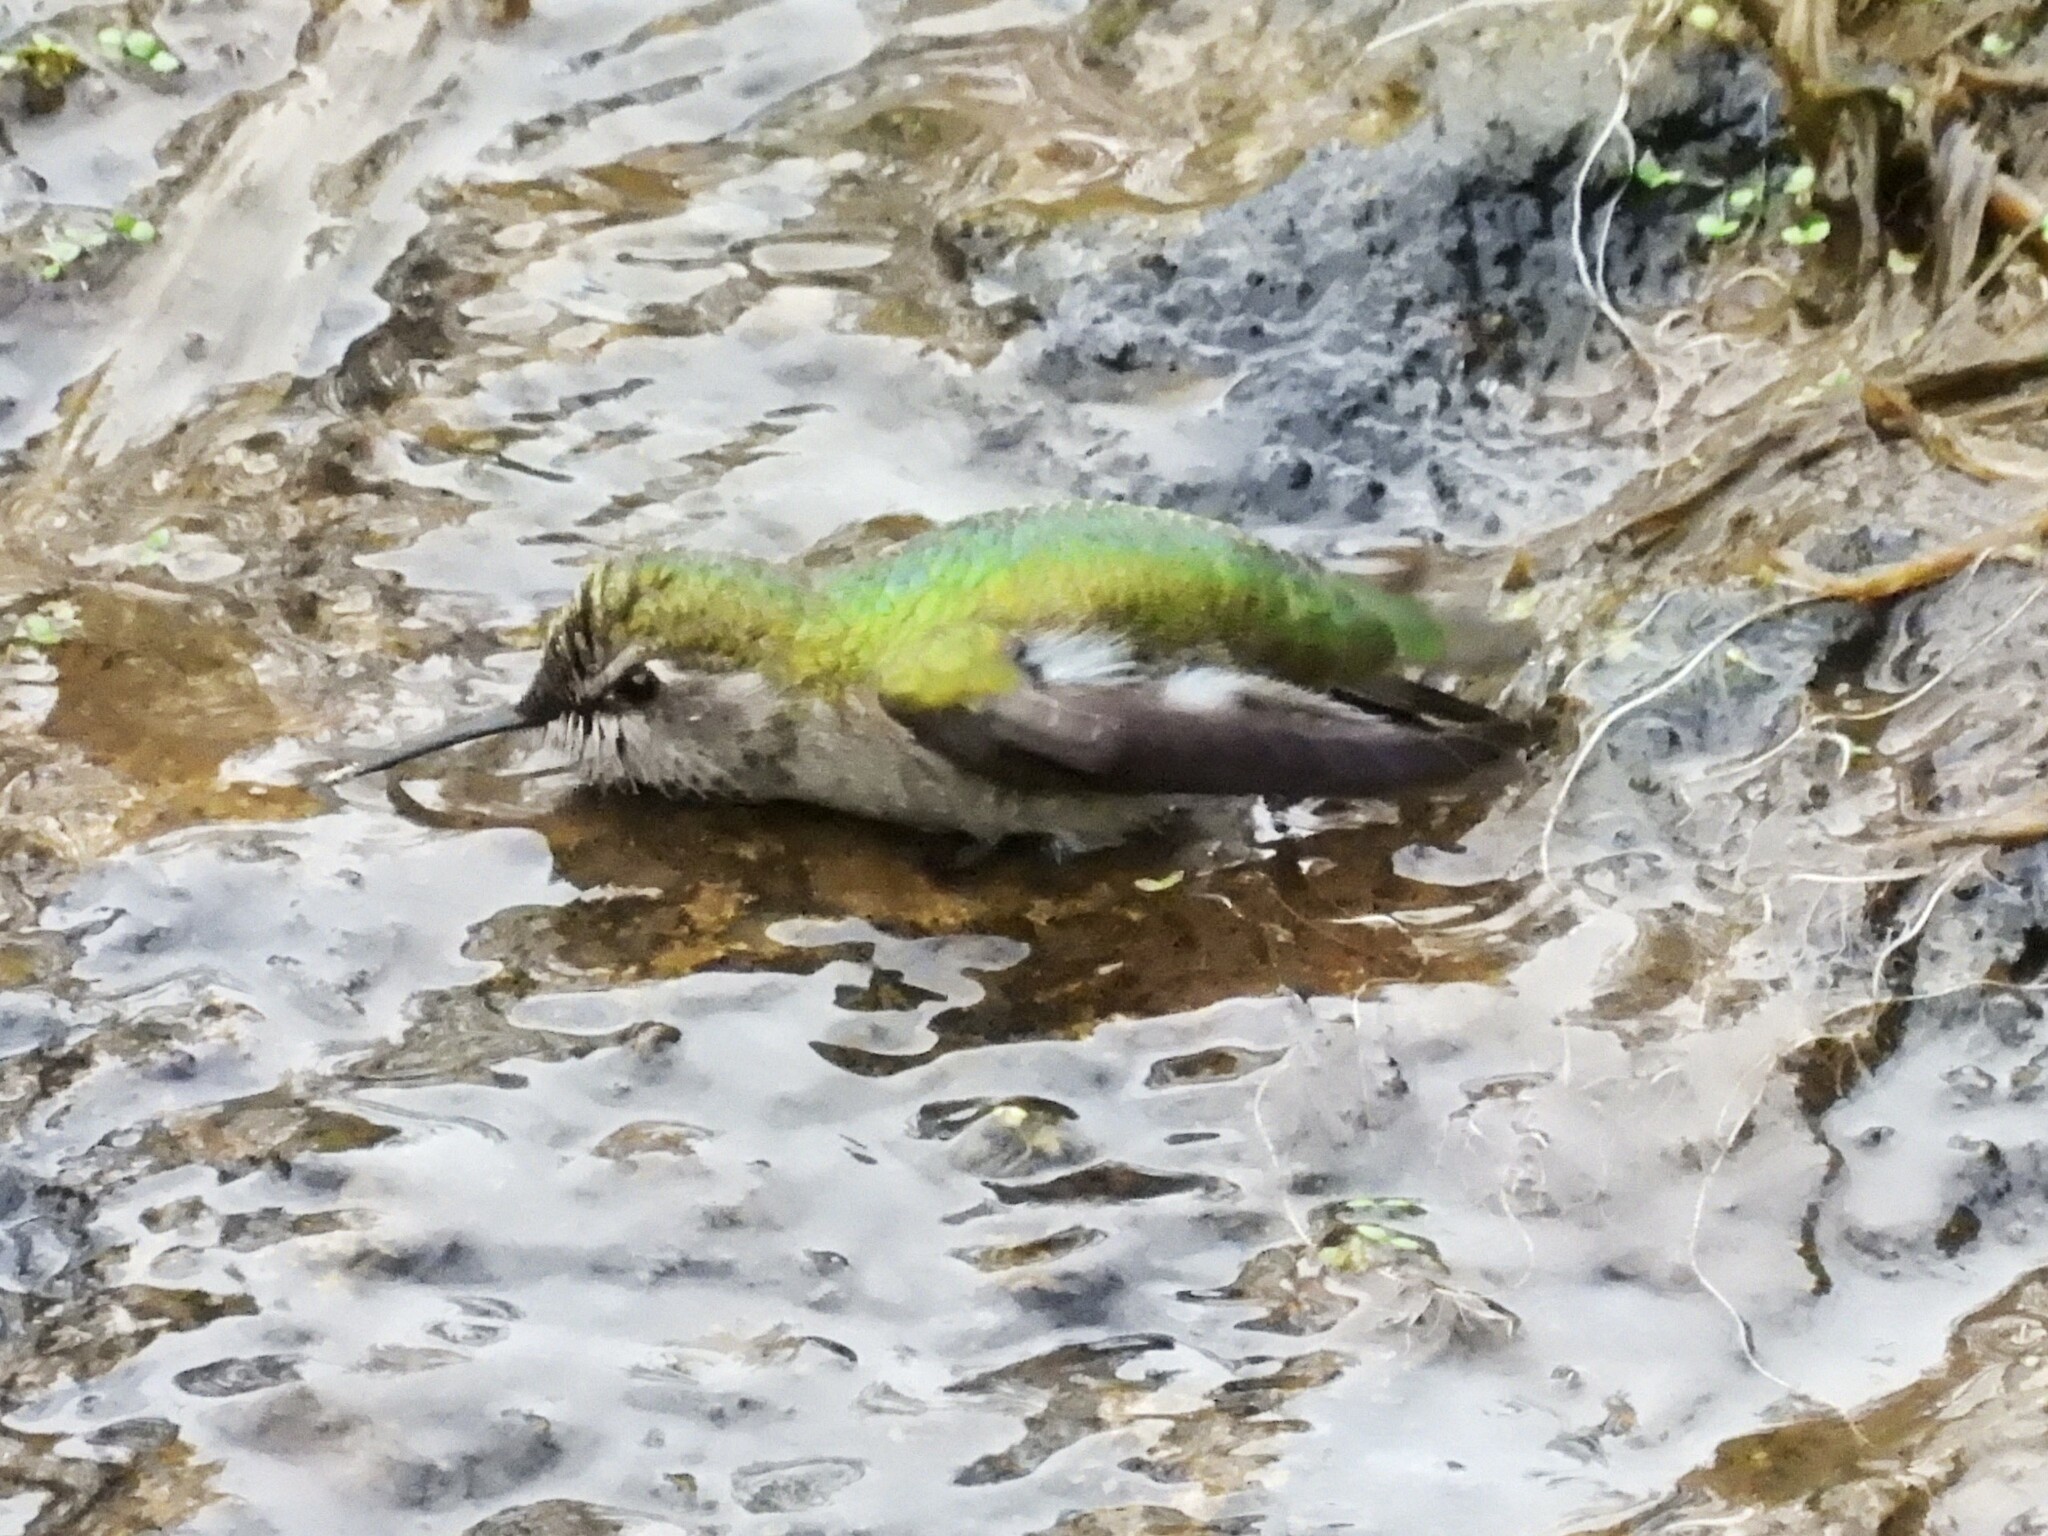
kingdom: Animalia
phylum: Chordata
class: Aves
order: Apodiformes
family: Trochilidae
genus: Calypte
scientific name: Calypte anna
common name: Anna's hummingbird
